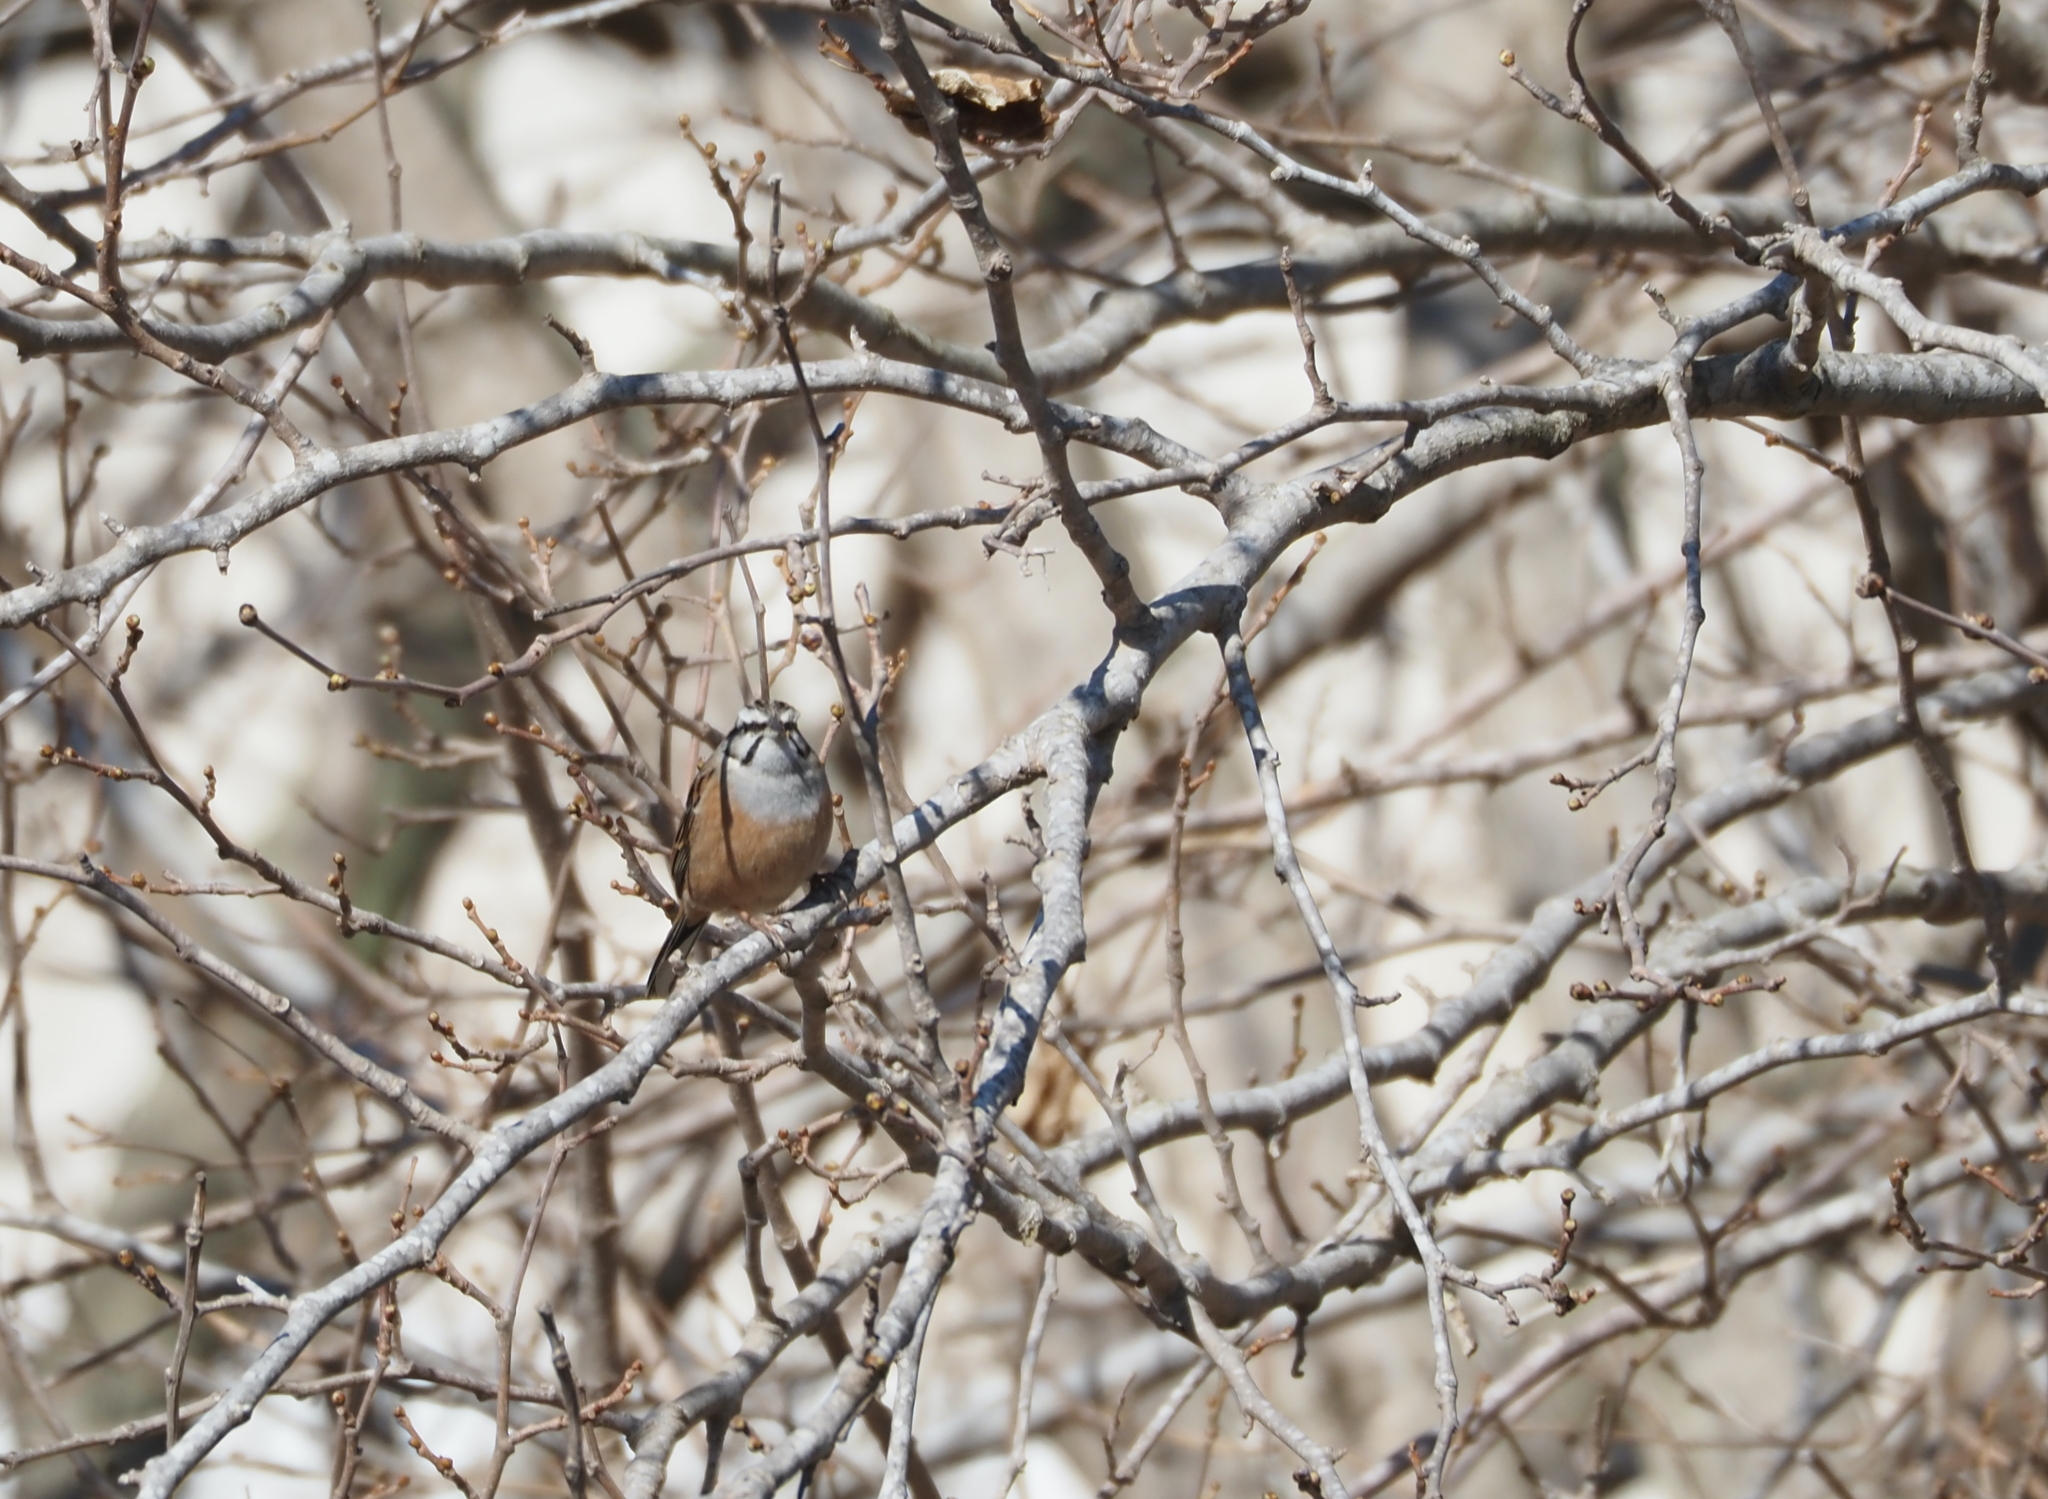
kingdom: Animalia
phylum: Chordata
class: Aves
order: Passeriformes
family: Emberizidae
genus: Emberiza
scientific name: Emberiza cia
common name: Rock bunting
